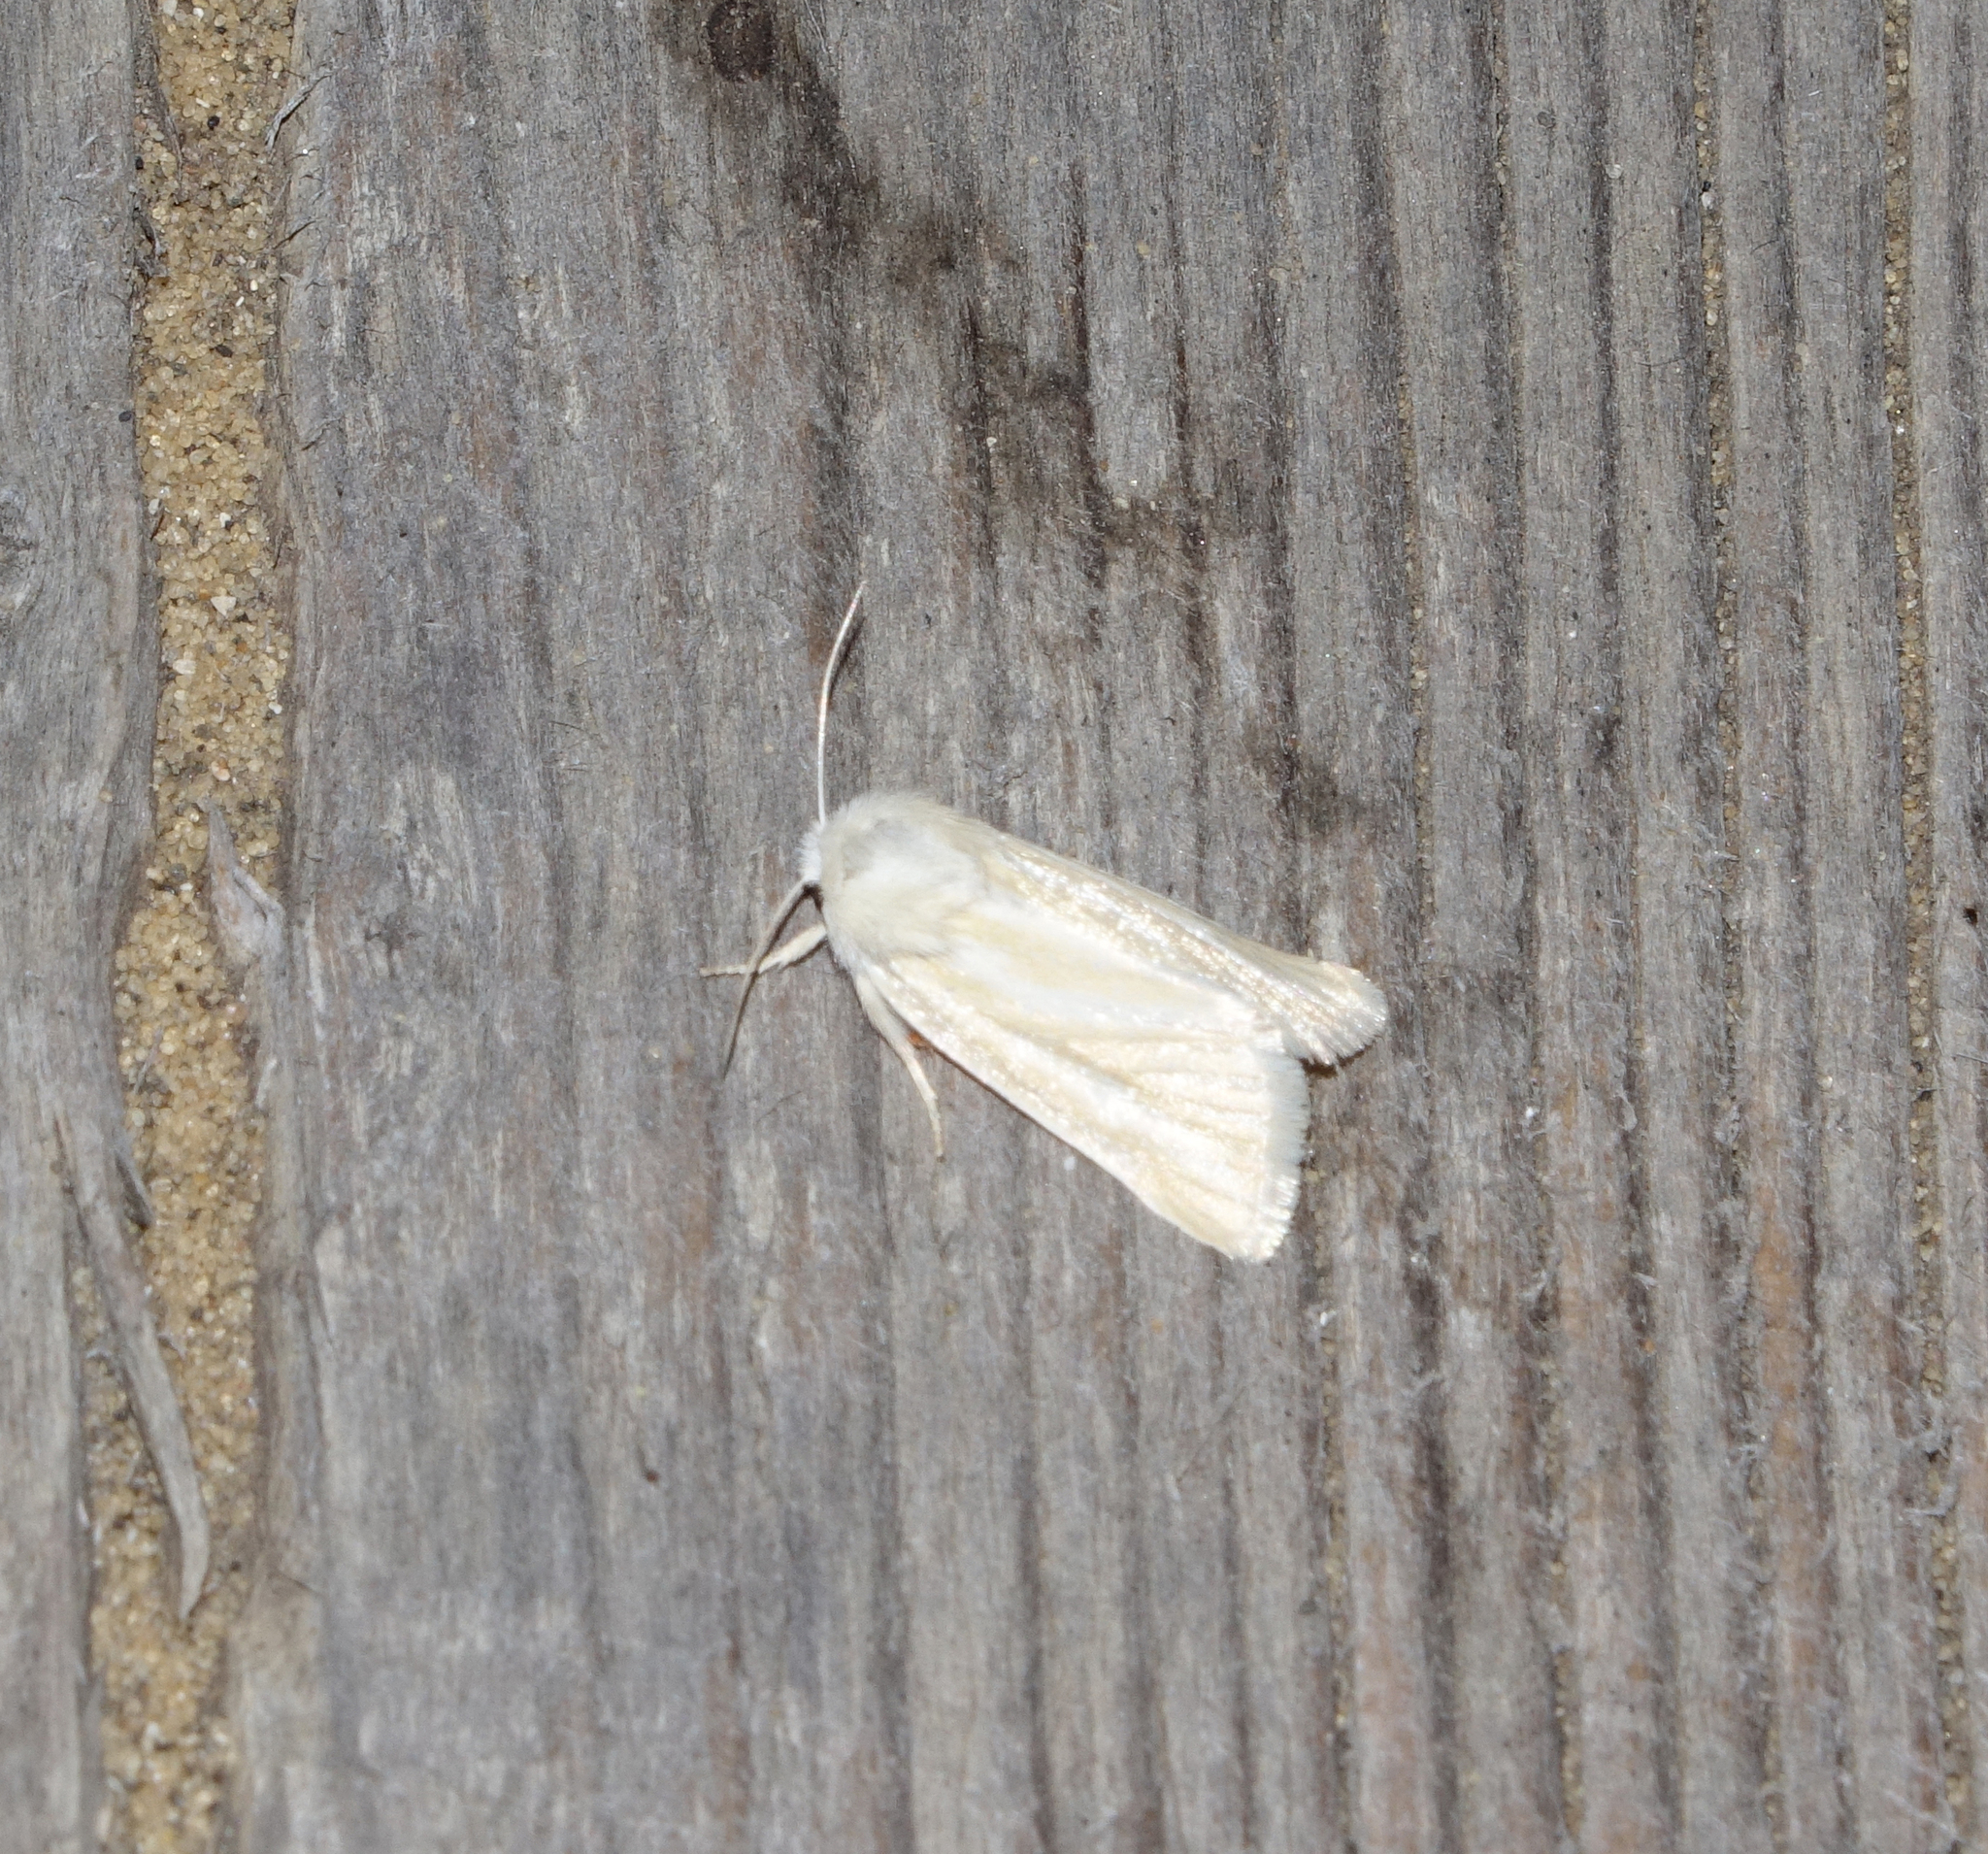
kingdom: Animalia
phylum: Arthropoda
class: Insecta
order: Lepidoptera
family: Noctuidae
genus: Oria
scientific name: Oria musculosa
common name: Brighton wainscot
